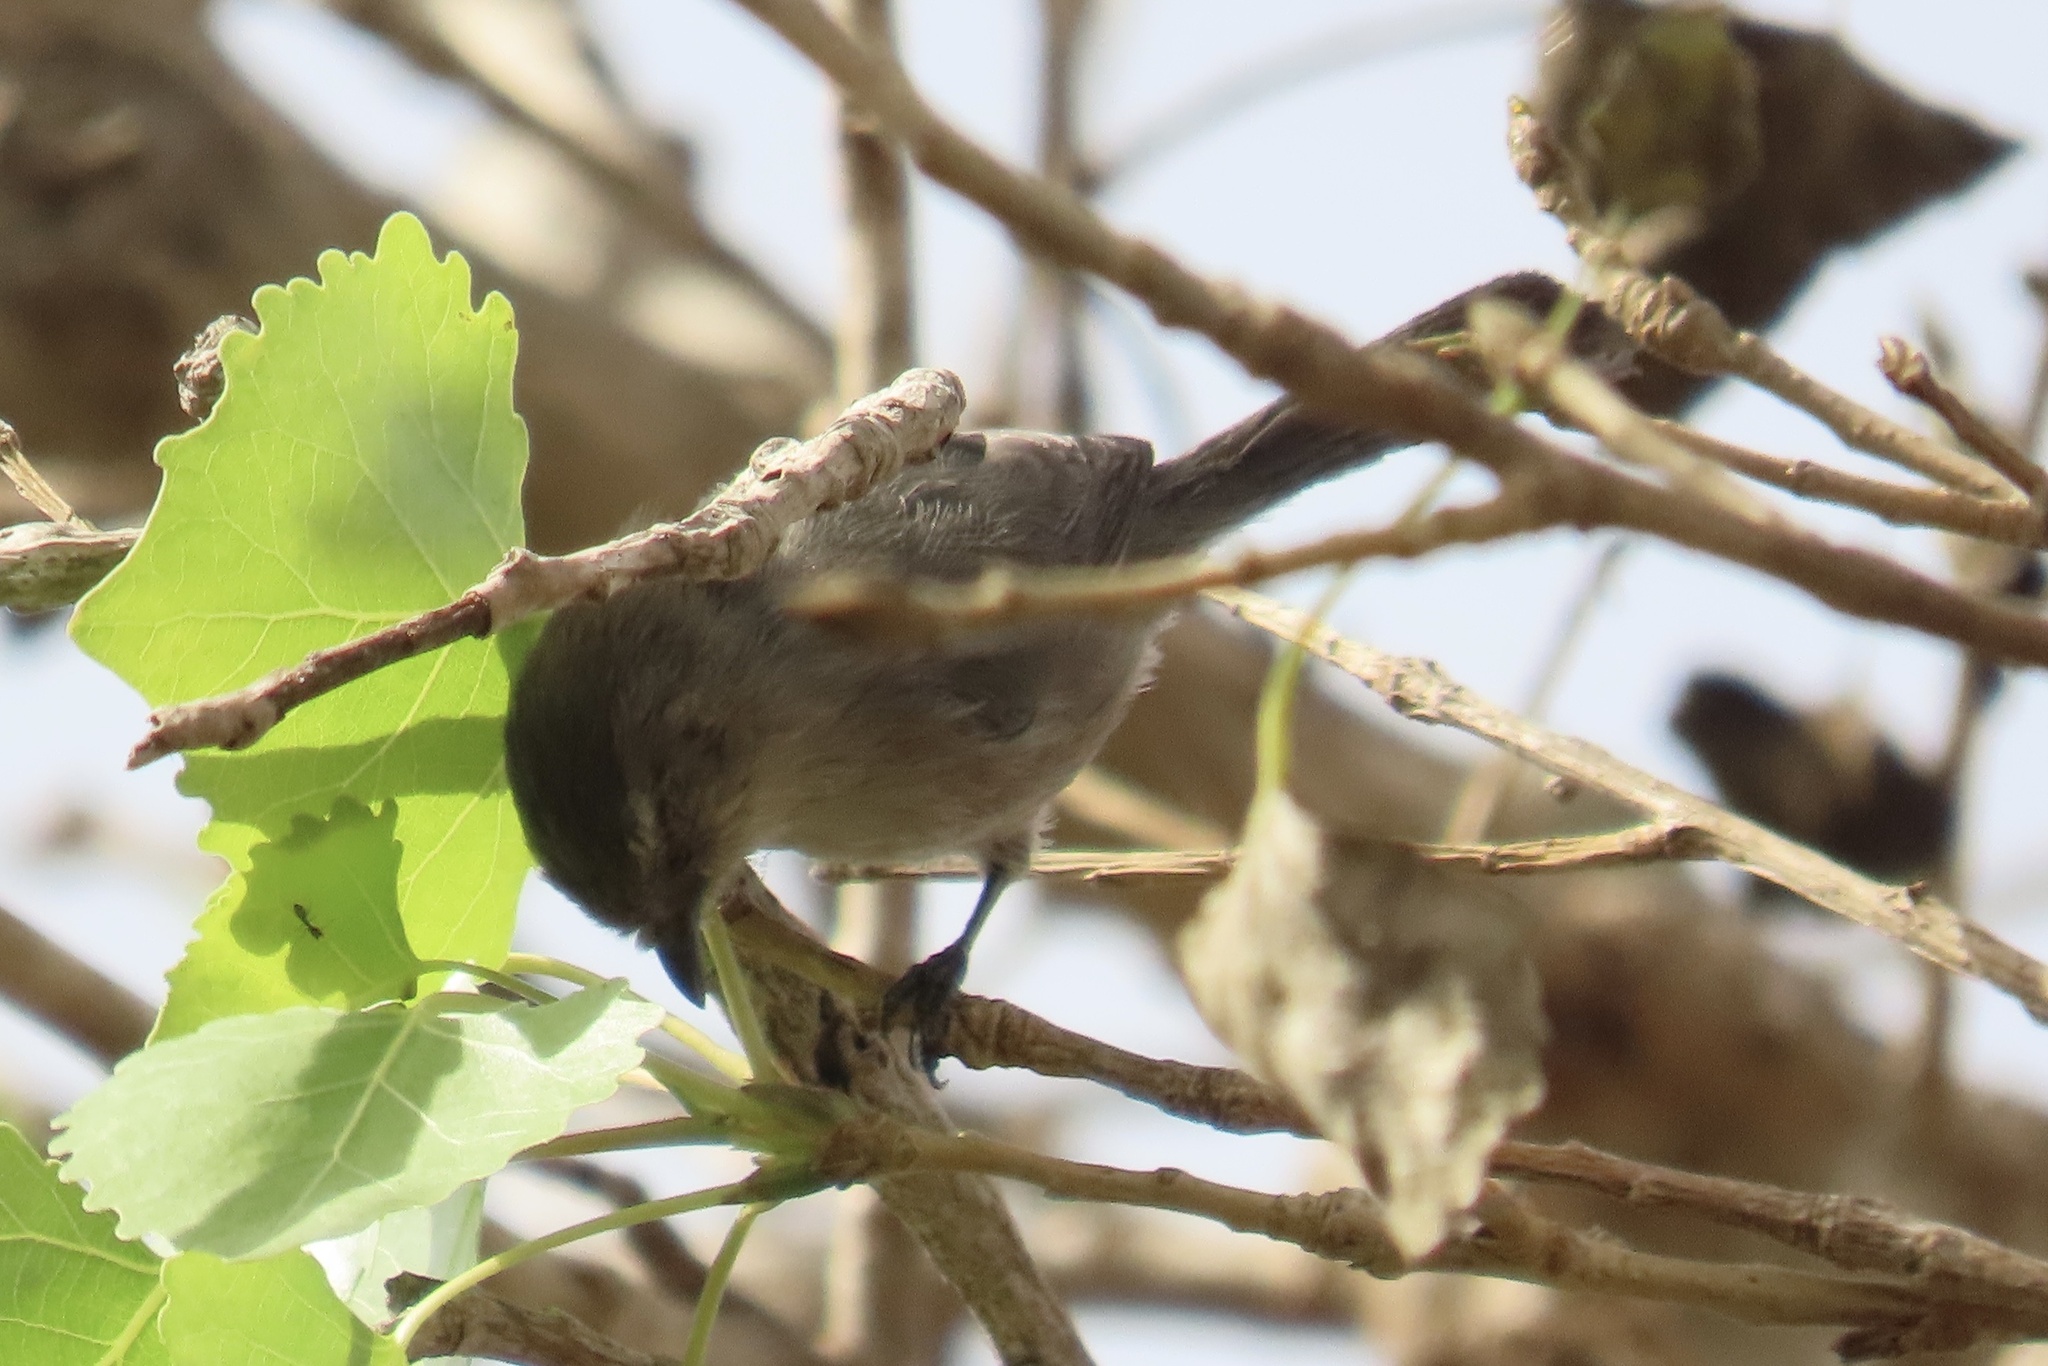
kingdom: Animalia
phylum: Chordata
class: Aves
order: Passeriformes
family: Aegithalidae
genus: Psaltriparus
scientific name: Psaltriparus minimus
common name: American bushtit
